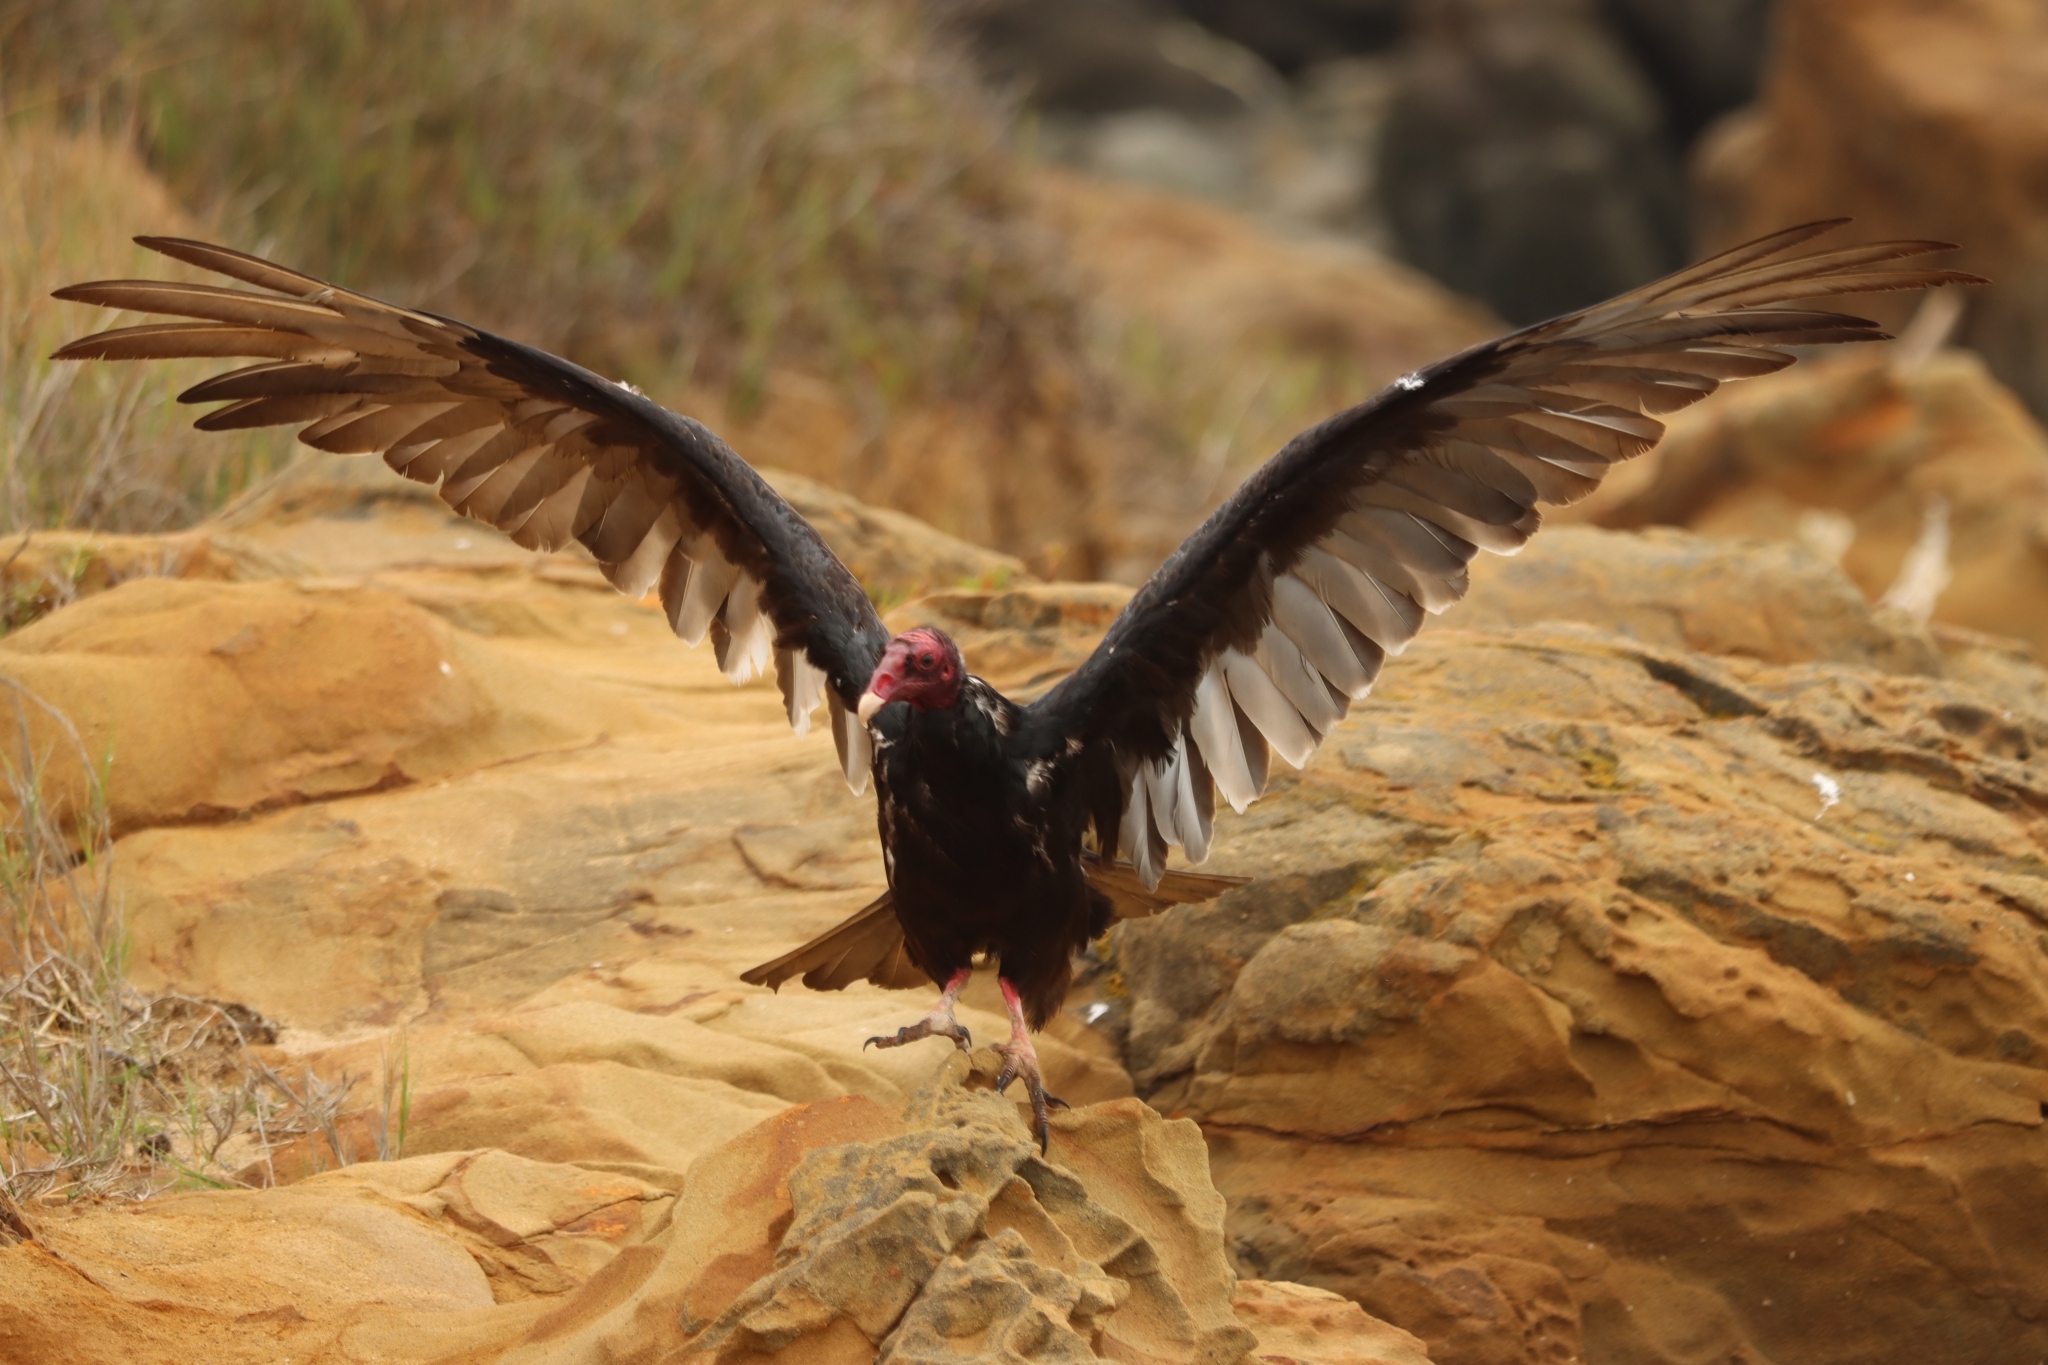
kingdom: Animalia
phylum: Chordata
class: Aves
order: Accipitriformes
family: Cathartidae
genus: Cathartes
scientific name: Cathartes aura
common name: Turkey vulture
